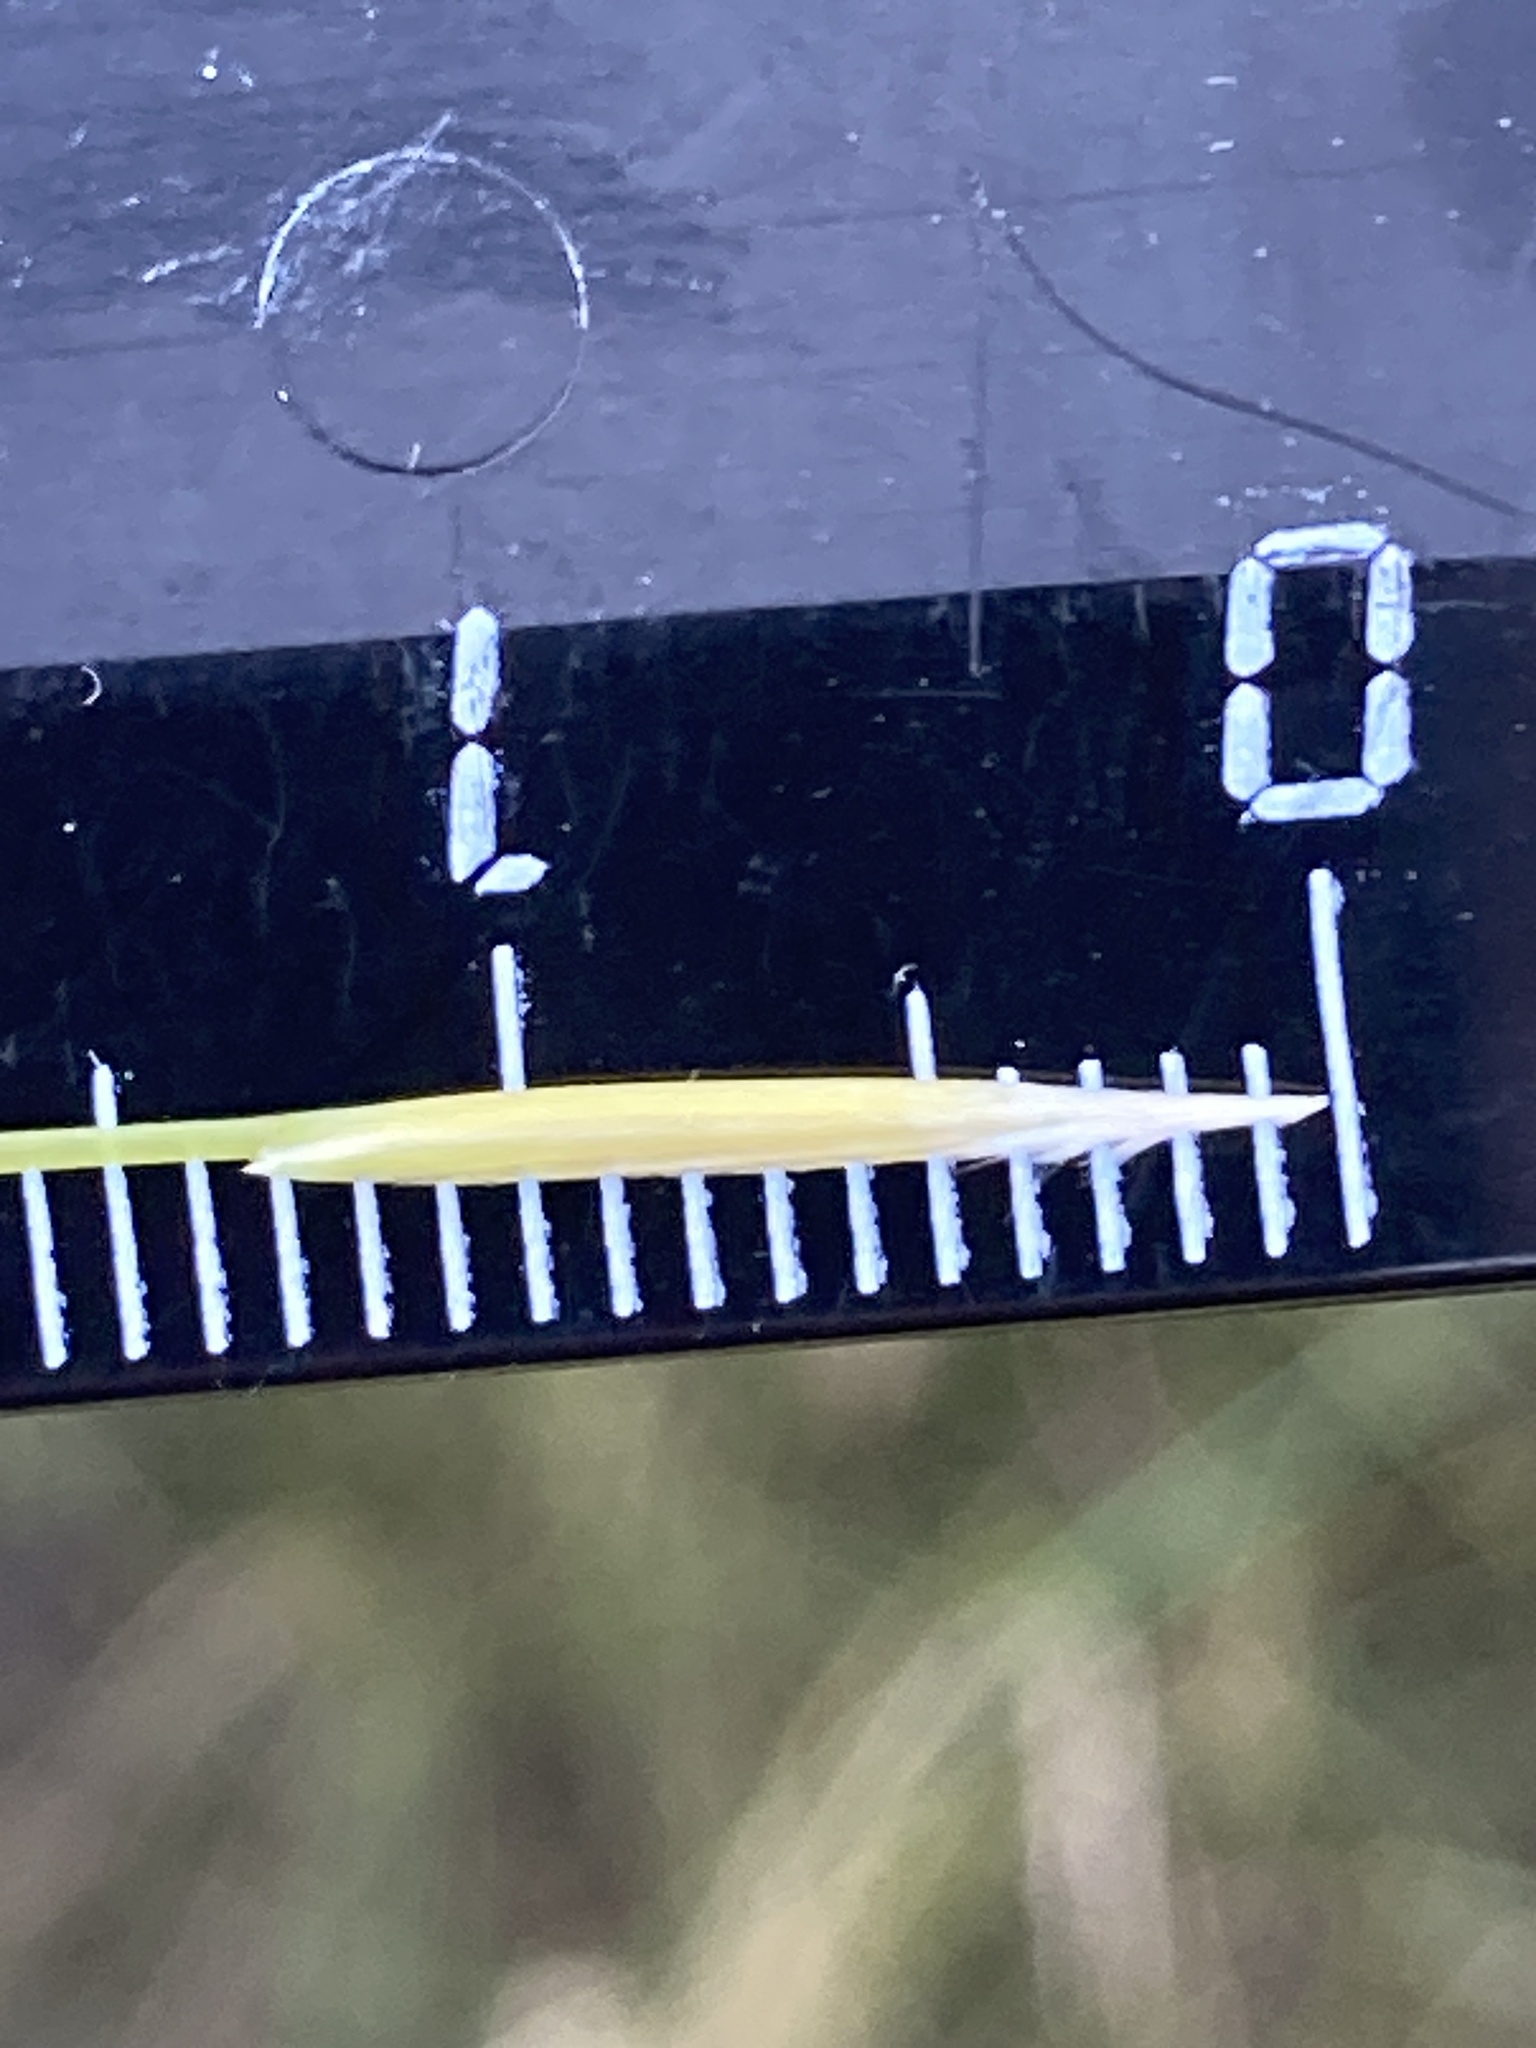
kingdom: Plantae
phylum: Tracheophyta
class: Liliopsida
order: Poales
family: Poaceae
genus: Stipa
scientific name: Stipa capillata
